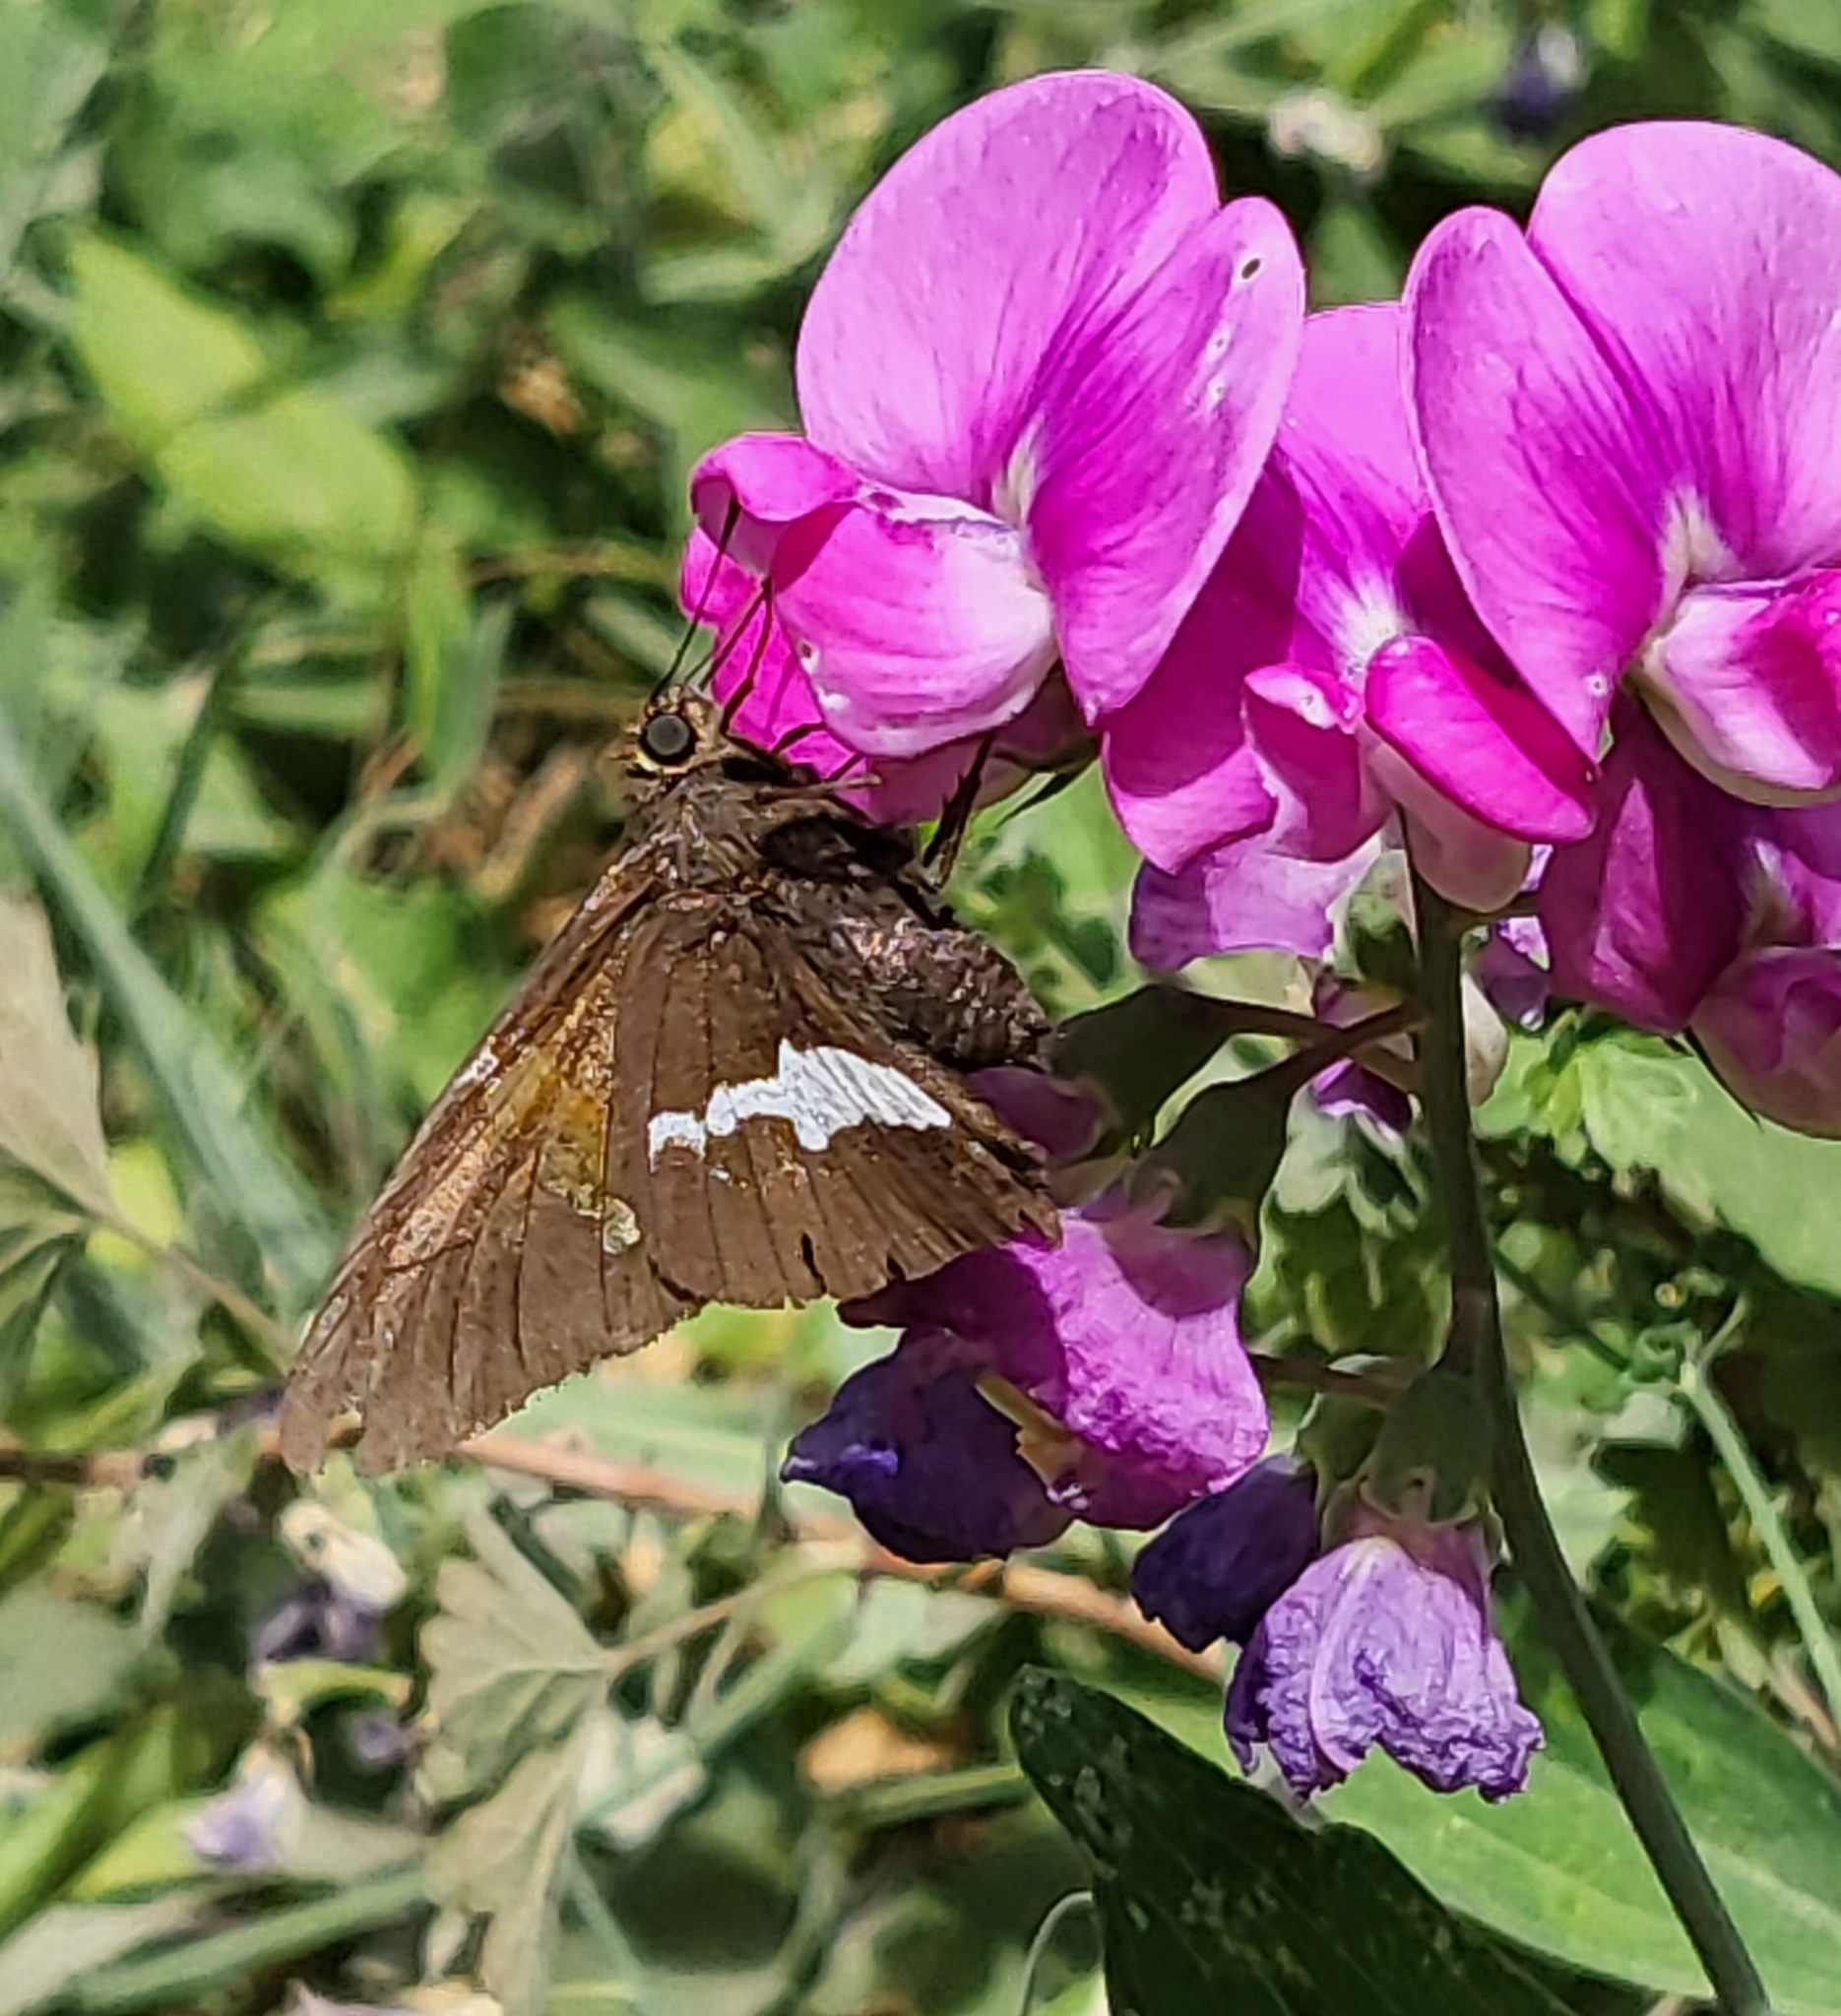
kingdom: Animalia
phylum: Arthropoda
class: Insecta
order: Lepidoptera
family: Hesperiidae
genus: Epargyreus
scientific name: Epargyreus clarus
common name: Silver-spotted skipper
